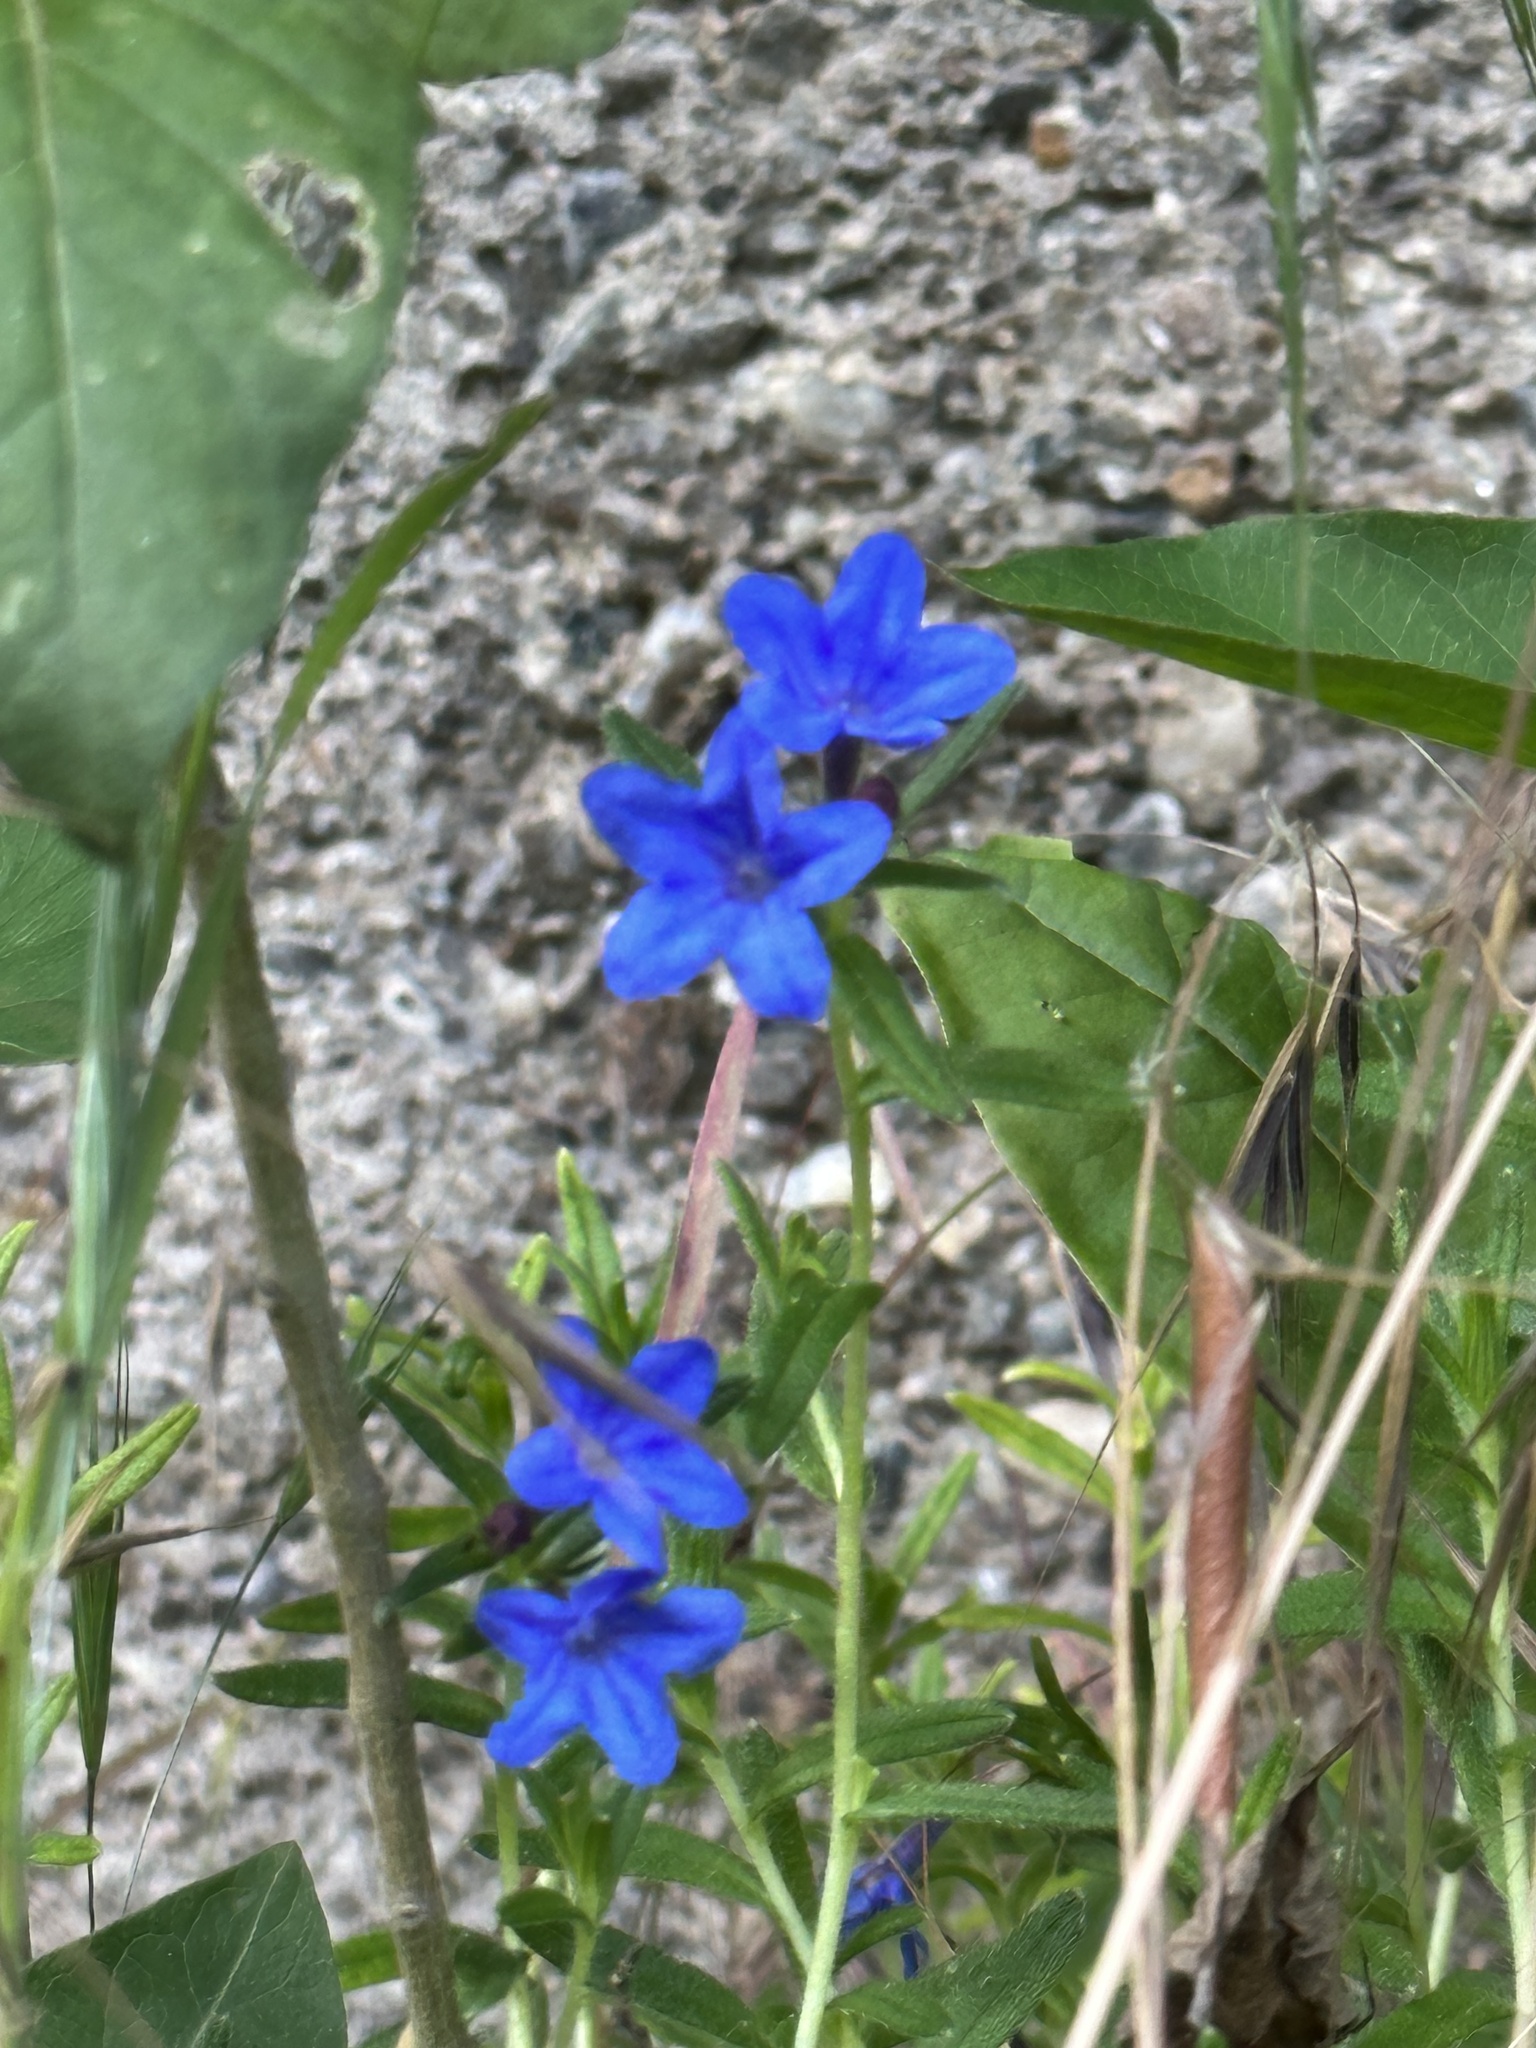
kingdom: Plantae
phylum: Tracheophyta
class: Magnoliopsida
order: Boraginales
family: Boraginaceae
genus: Aegonychon
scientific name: Aegonychon purpurocaeruleum
